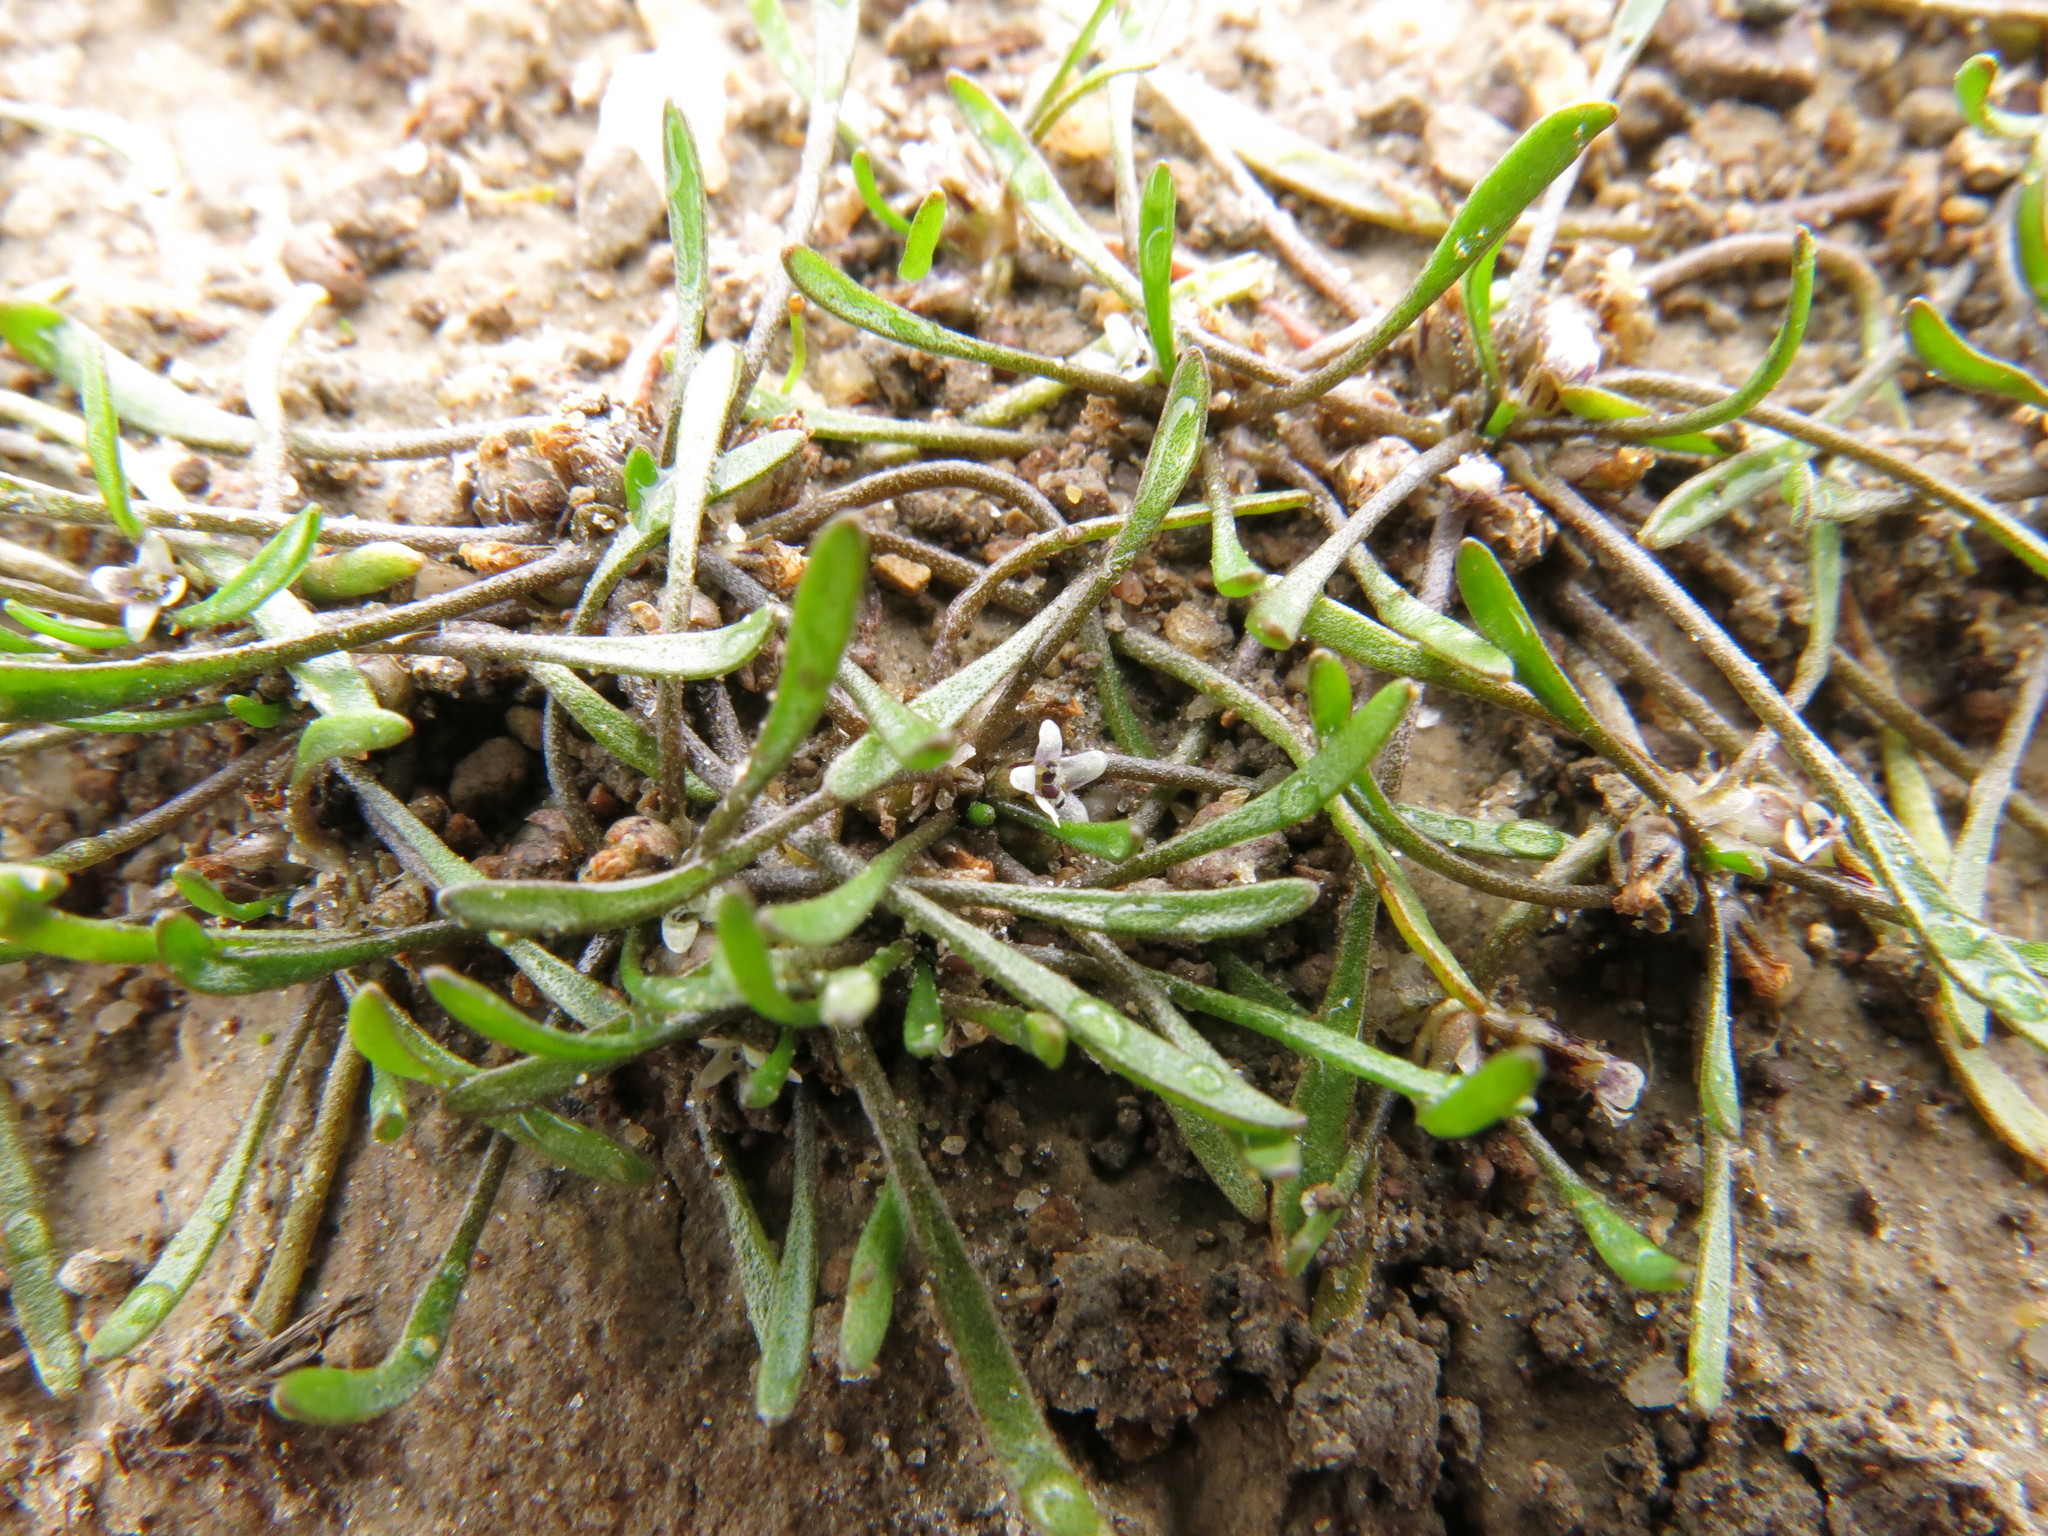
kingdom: Plantae
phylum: Tracheophyta
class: Magnoliopsida
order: Lamiales
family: Scrophulariaceae
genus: Limosella
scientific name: Limosella australis
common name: Welsh mudwort
